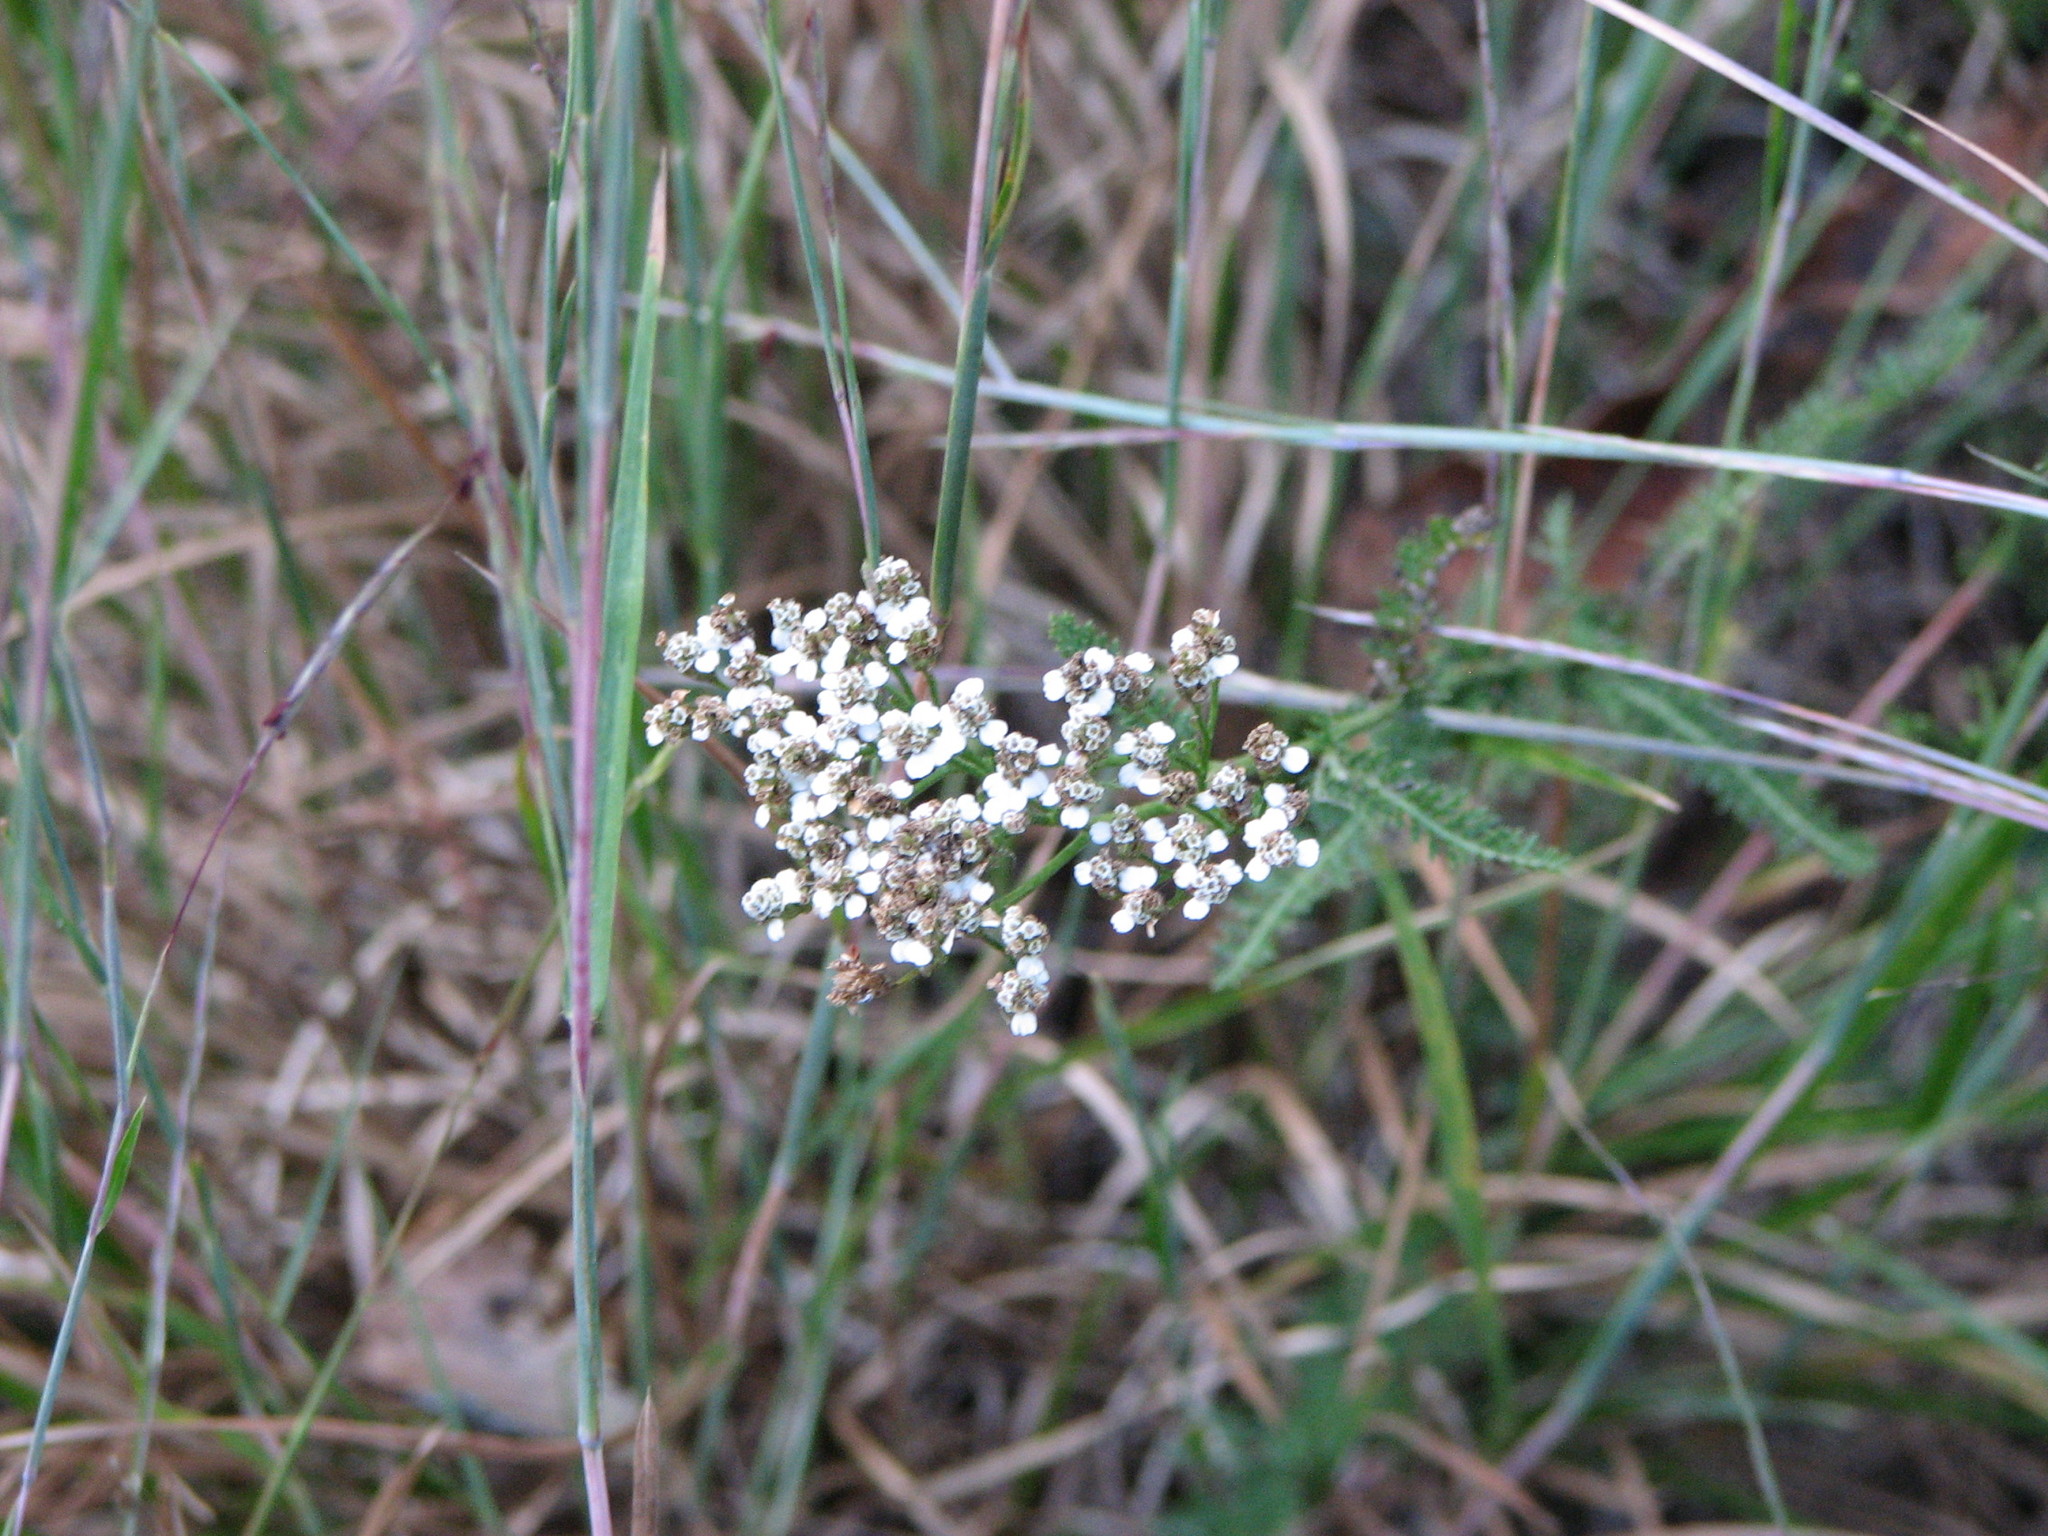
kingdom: Plantae
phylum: Tracheophyta
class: Magnoliopsida
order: Asterales
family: Asteraceae
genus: Achillea
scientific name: Achillea millefolium
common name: Yarrow
